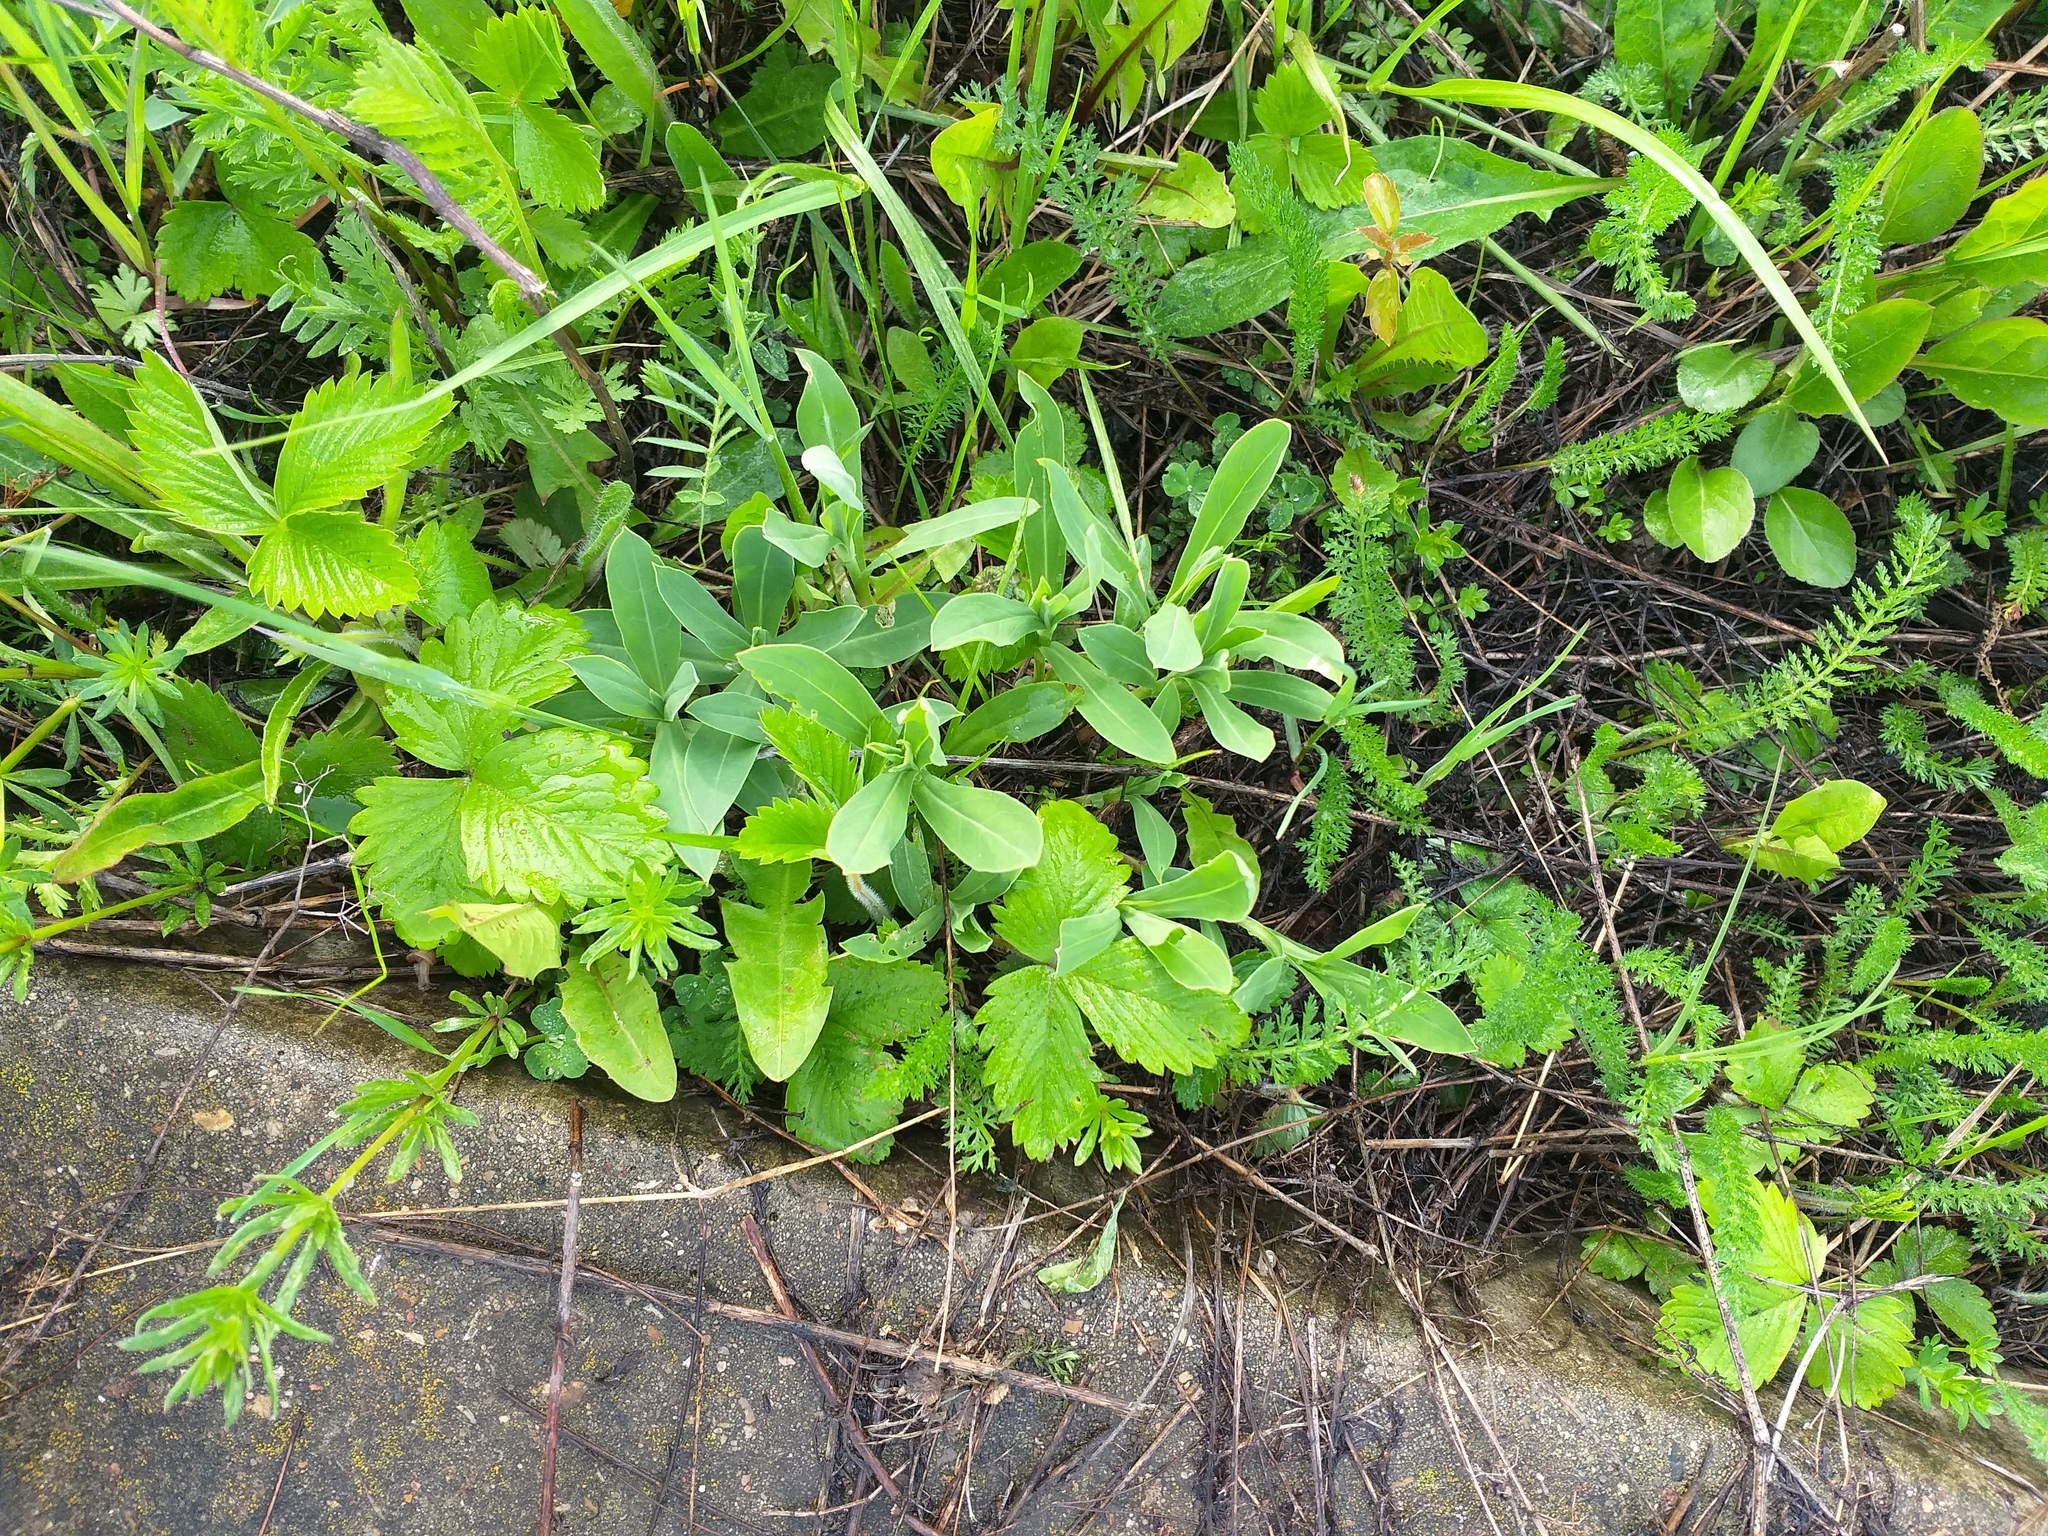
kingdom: Plantae
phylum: Tracheophyta
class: Magnoliopsida
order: Caryophyllales
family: Caryophyllaceae
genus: Silene
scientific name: Silene vulgaris
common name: Bladder campion
